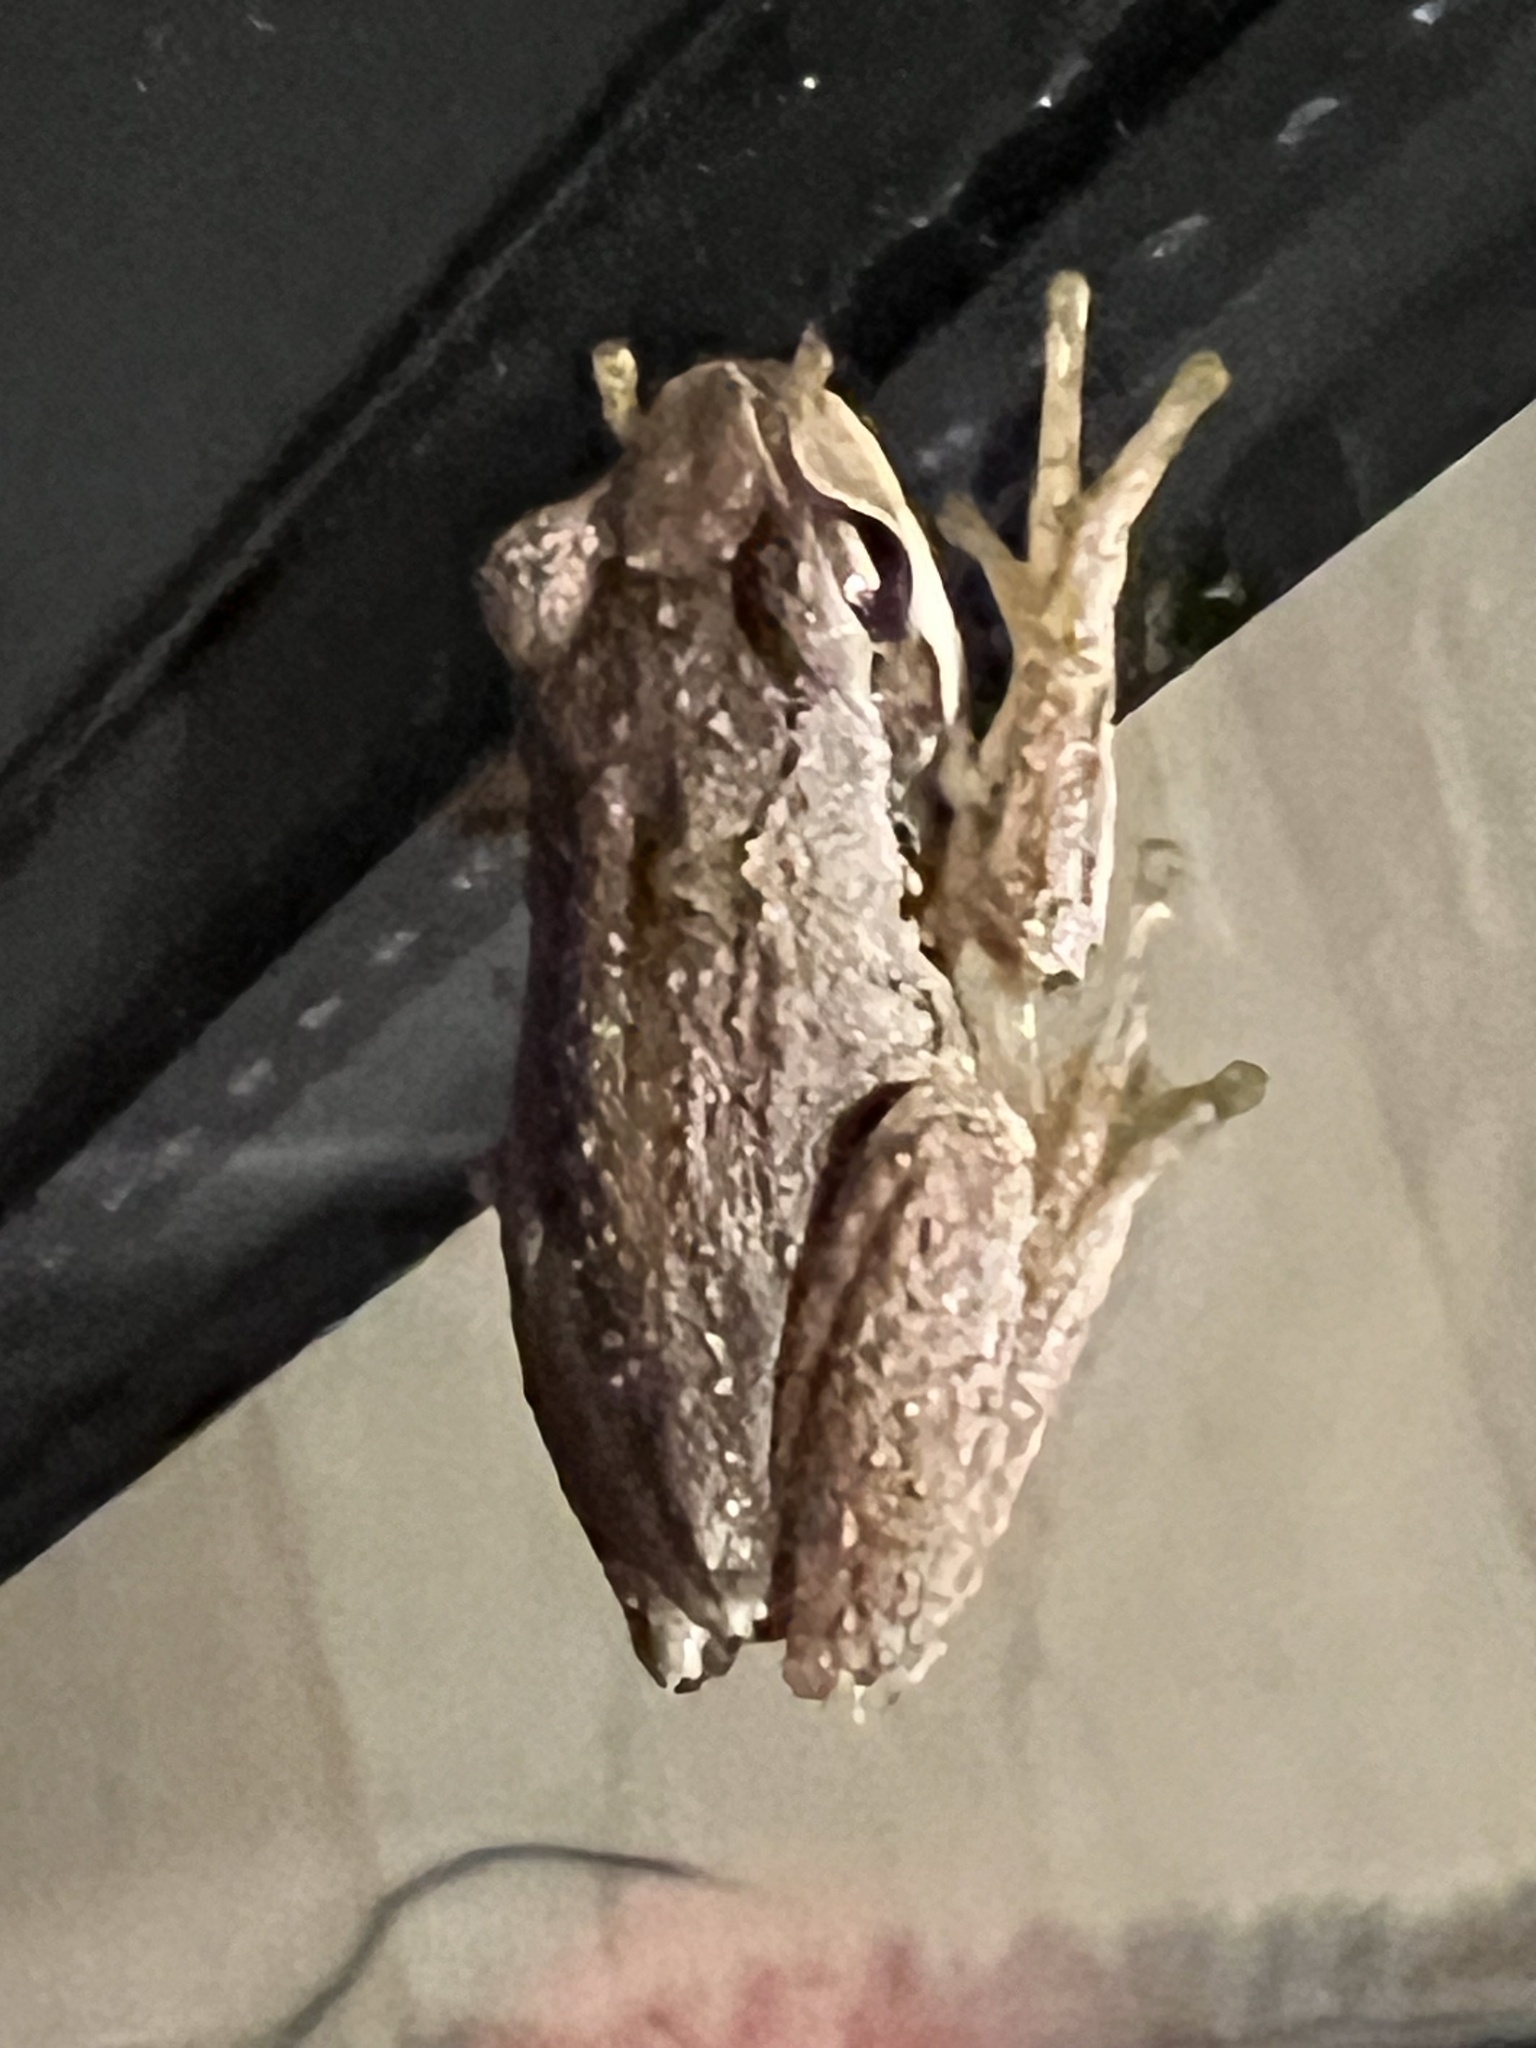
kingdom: Animalia
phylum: Chordata
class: Amphibia
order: Anura
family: Pelodryadidae
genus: Litoria
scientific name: Litoria ewingii
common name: Southern brown tree frog
